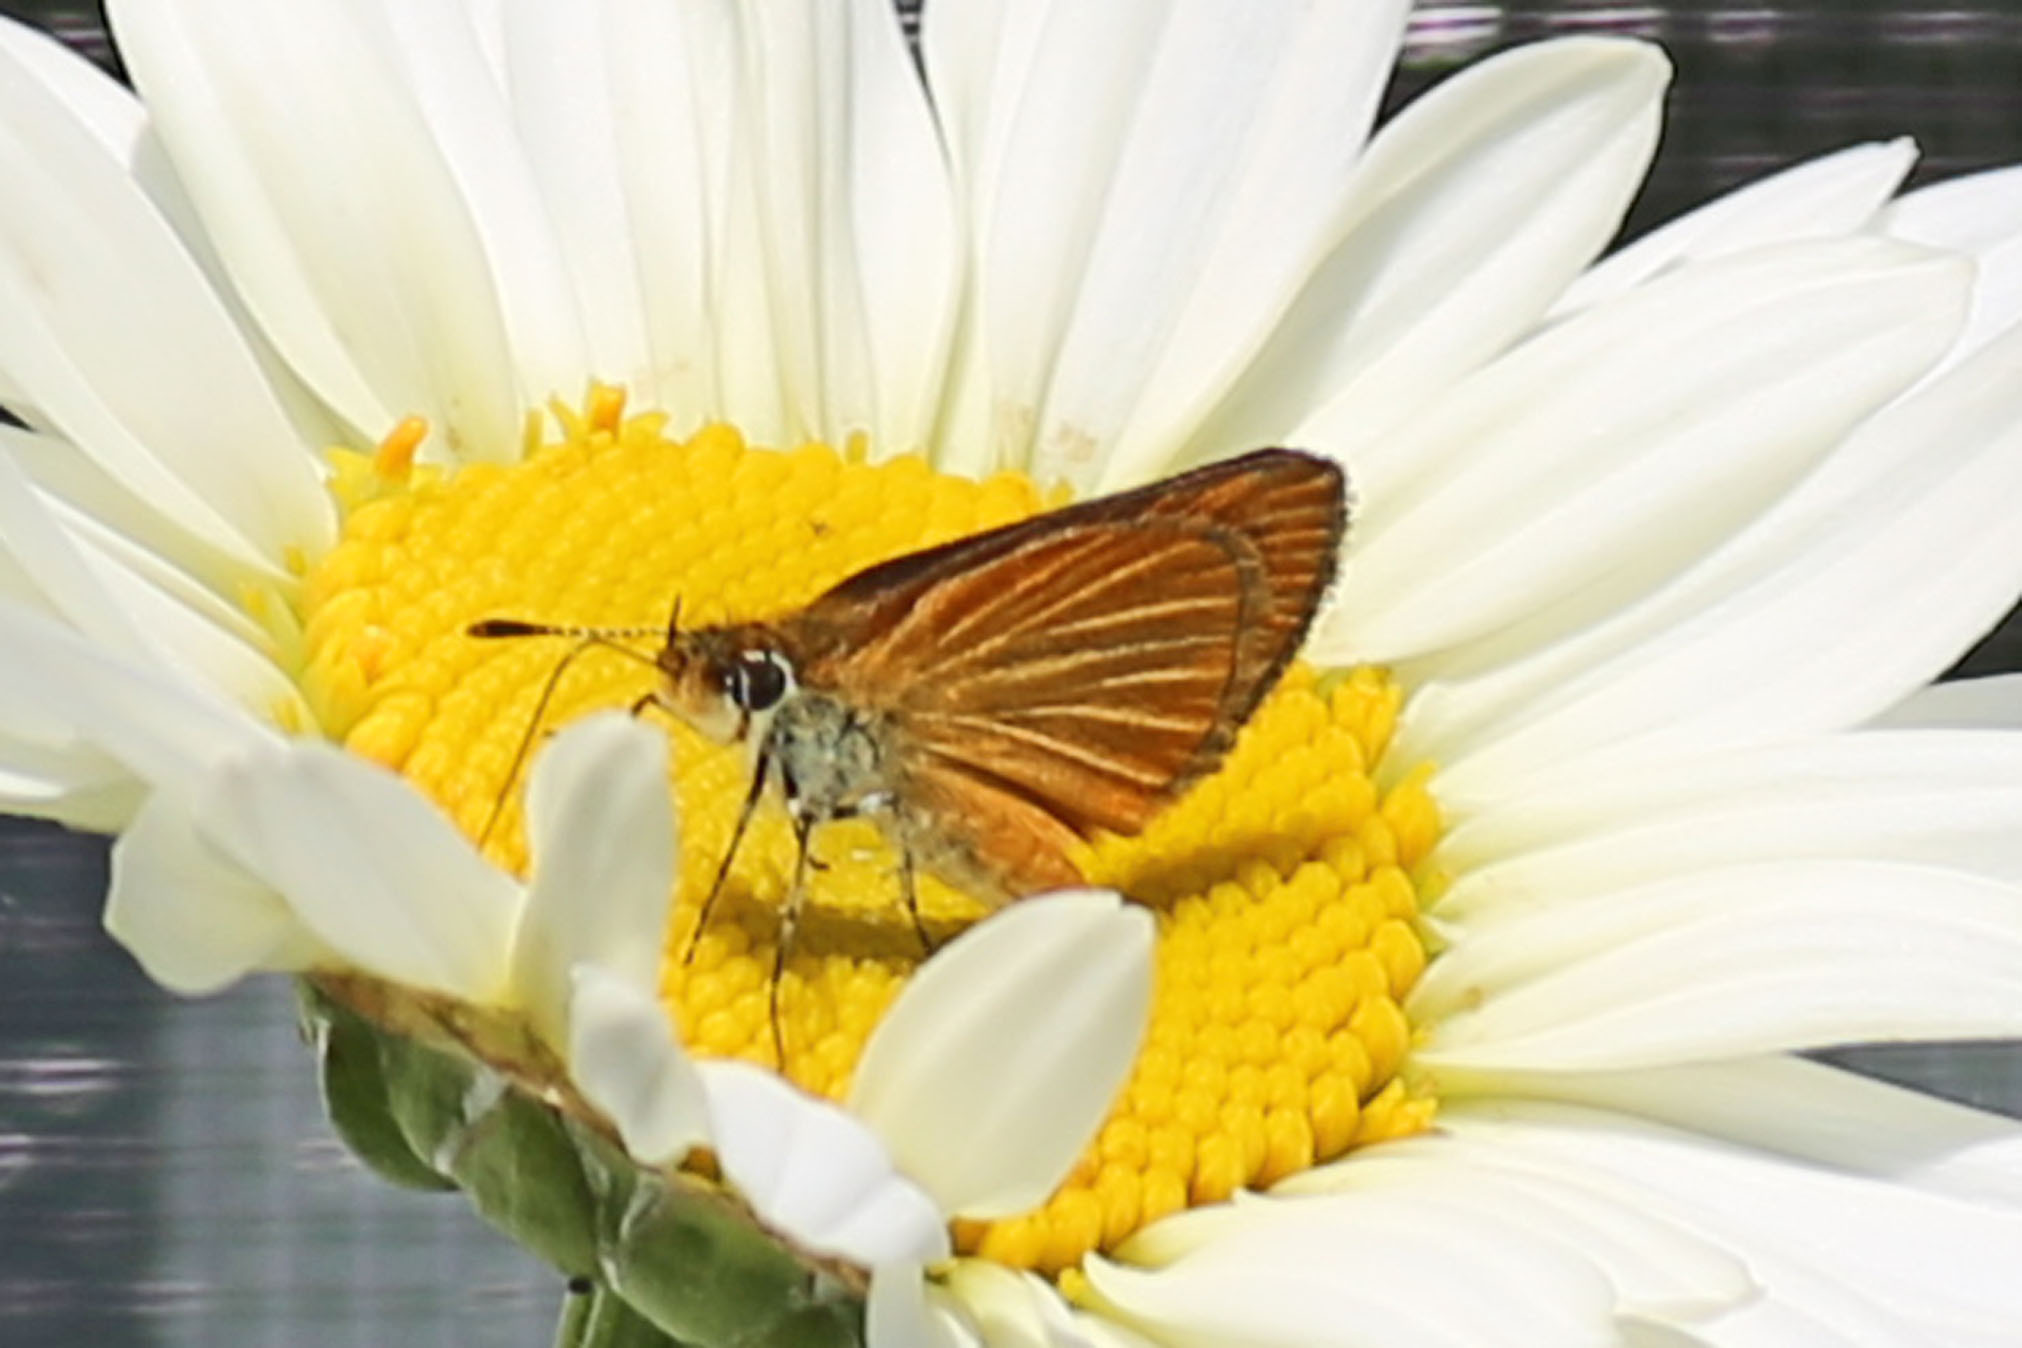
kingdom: Animalia
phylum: Arthropoda
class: Insecta
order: Lepidoptera
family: Hesperiidae
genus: Ancyloxypha
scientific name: Ancyloxypha numitor
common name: Least skipper
